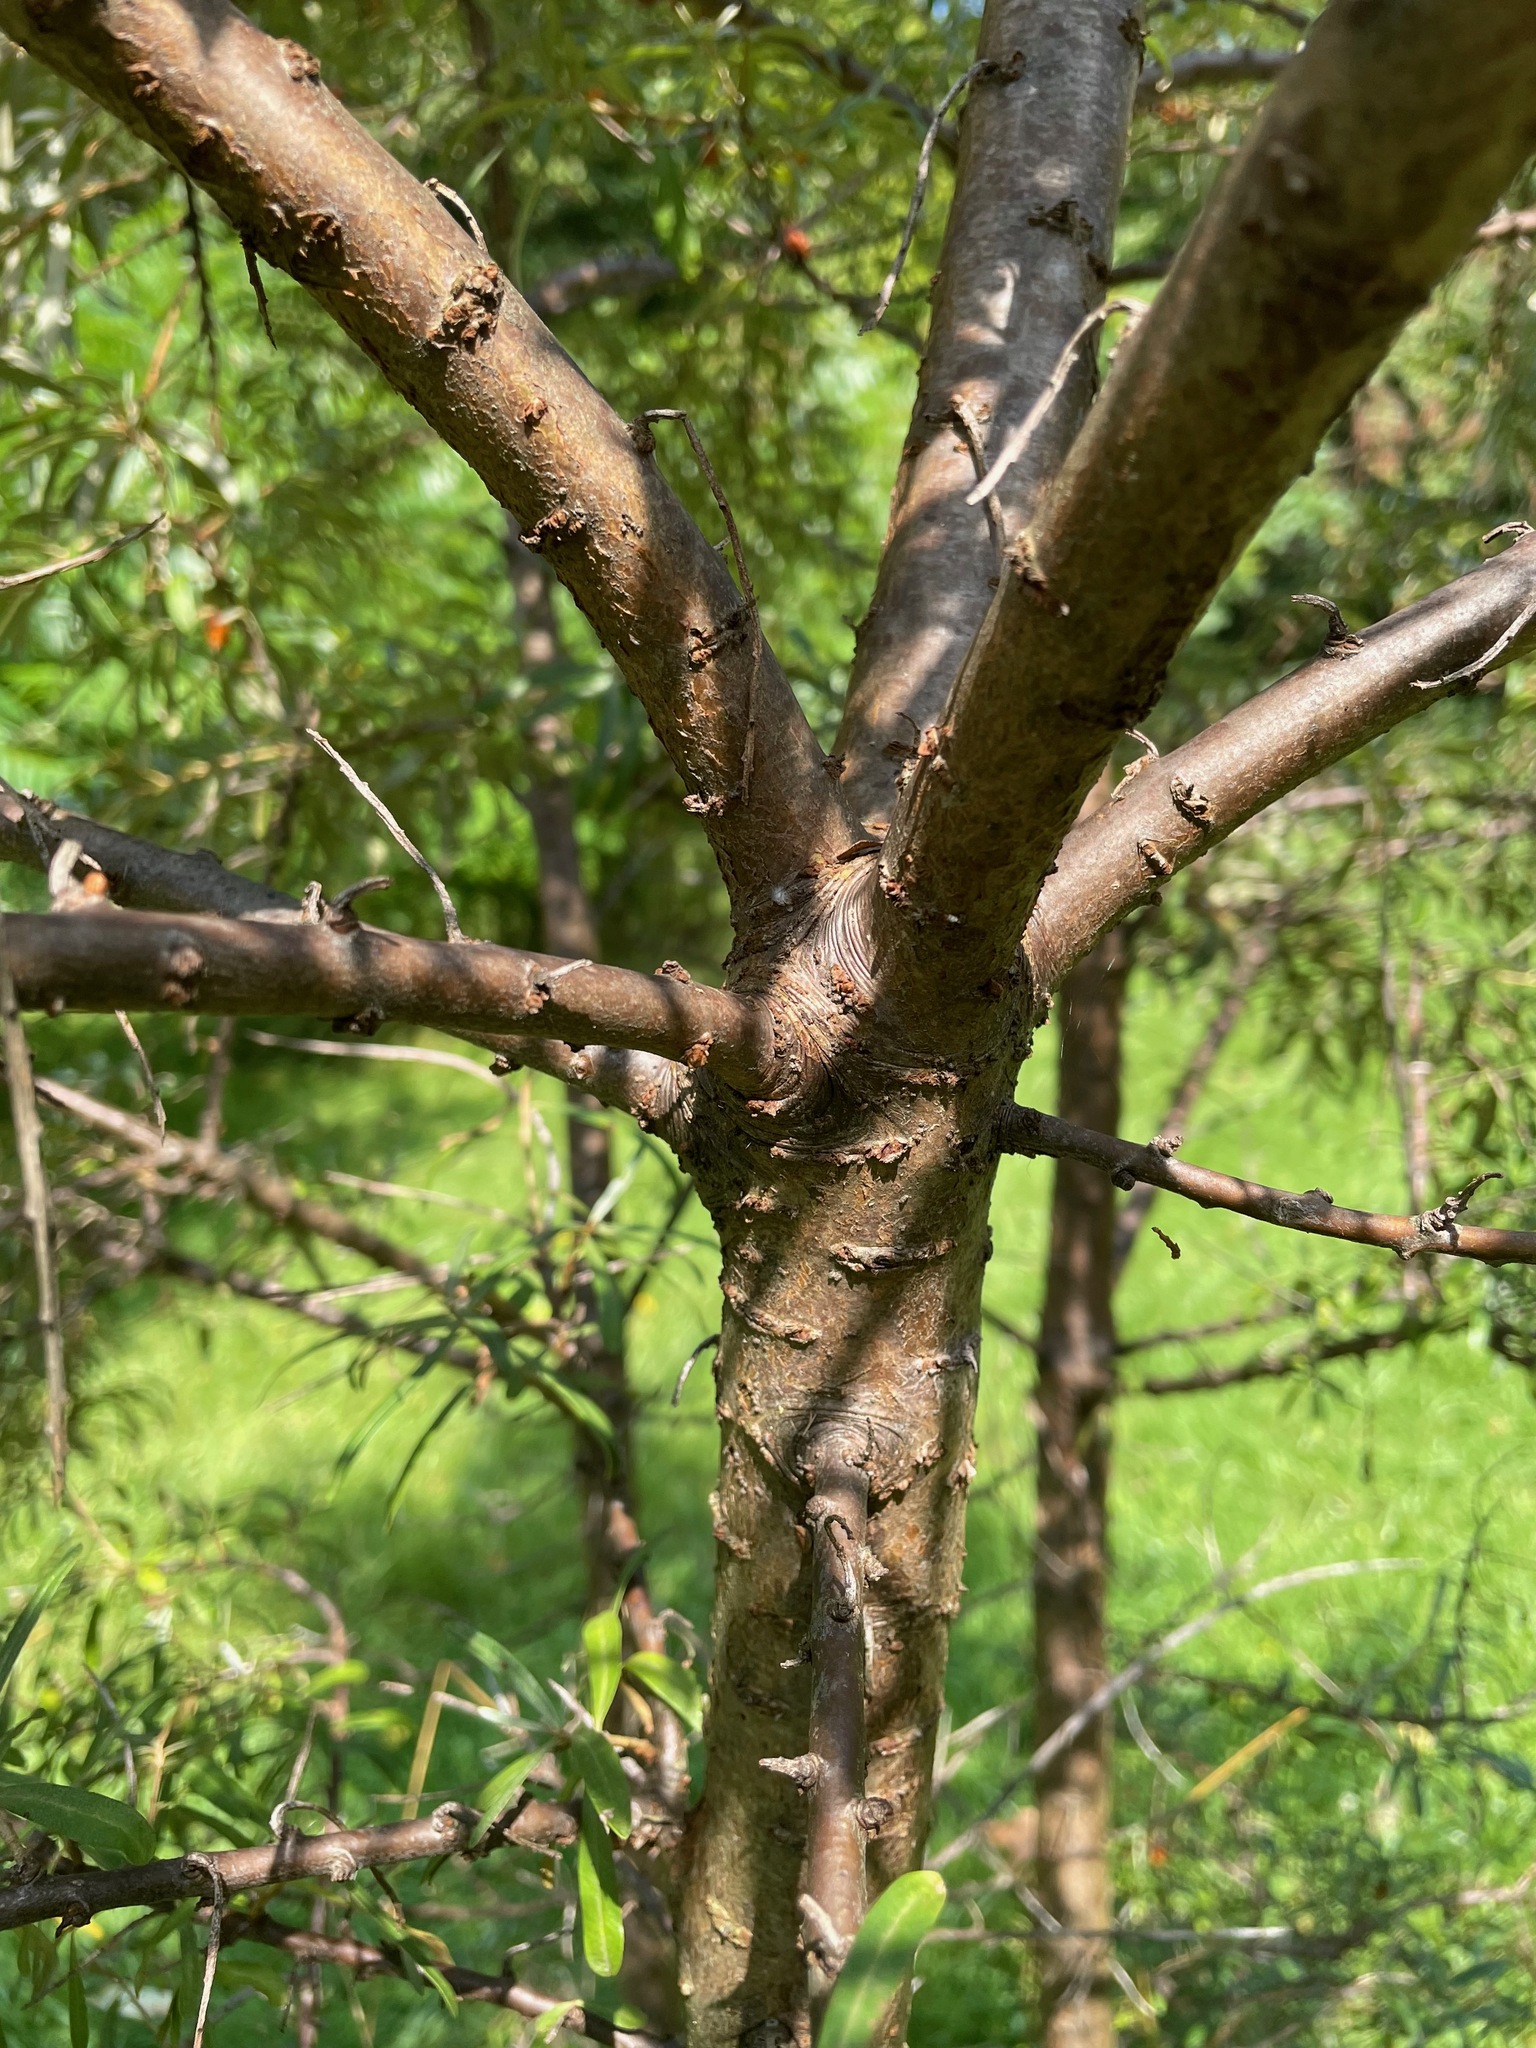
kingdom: Plantae
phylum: Tracheophyta
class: Magnoliopsida
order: Rosales
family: Elaeagnaceae
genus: Hippophae
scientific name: Hippophae rhamnoides
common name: Sea-buckthorn
